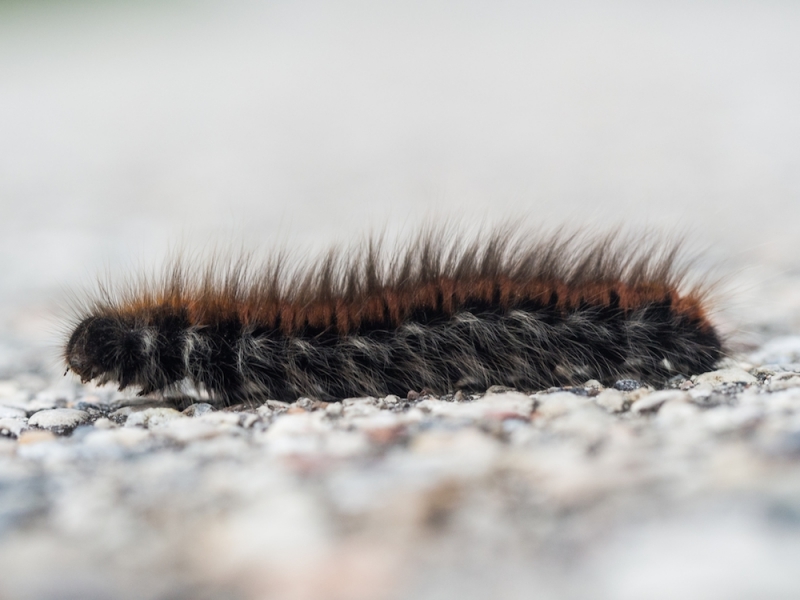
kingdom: Animalia
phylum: Arthropoda
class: Insecta
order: Lepidoptera
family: Lasiocampidae
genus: Macrothylacia
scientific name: Macrothylacia rubi
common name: Fox moth
